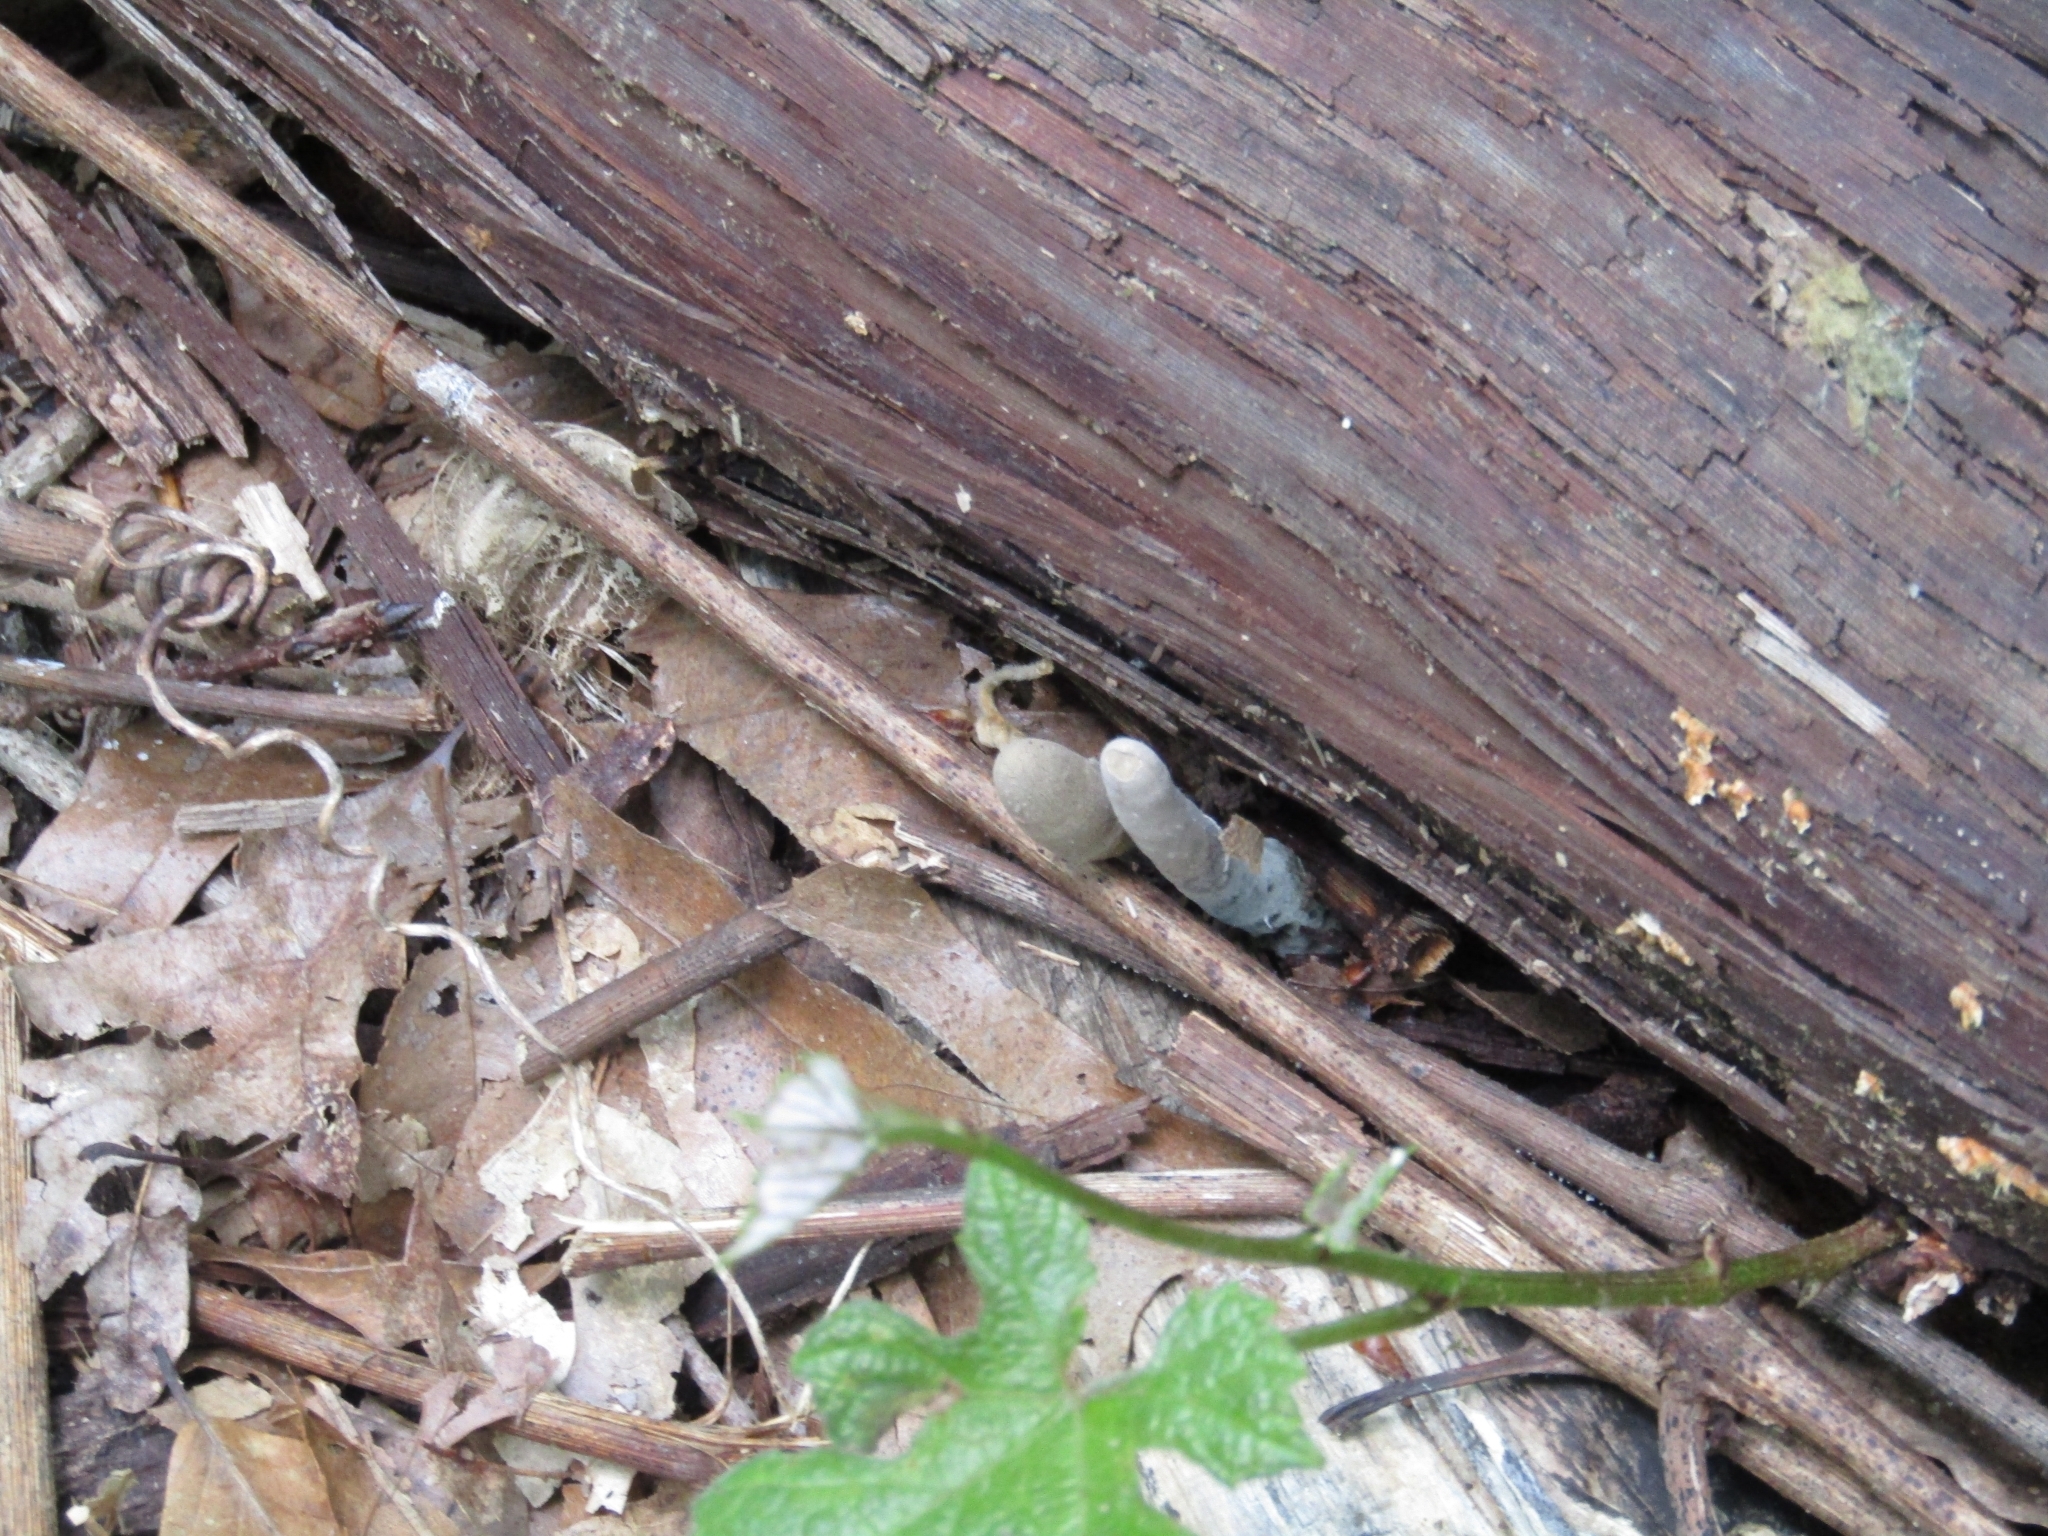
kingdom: Fungi
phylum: Ascomycota
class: Sordariomycetes
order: Xylariales
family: Xylariaceae
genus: Xylaria
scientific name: Xylaria polymorpha
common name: Dead man's fingers
